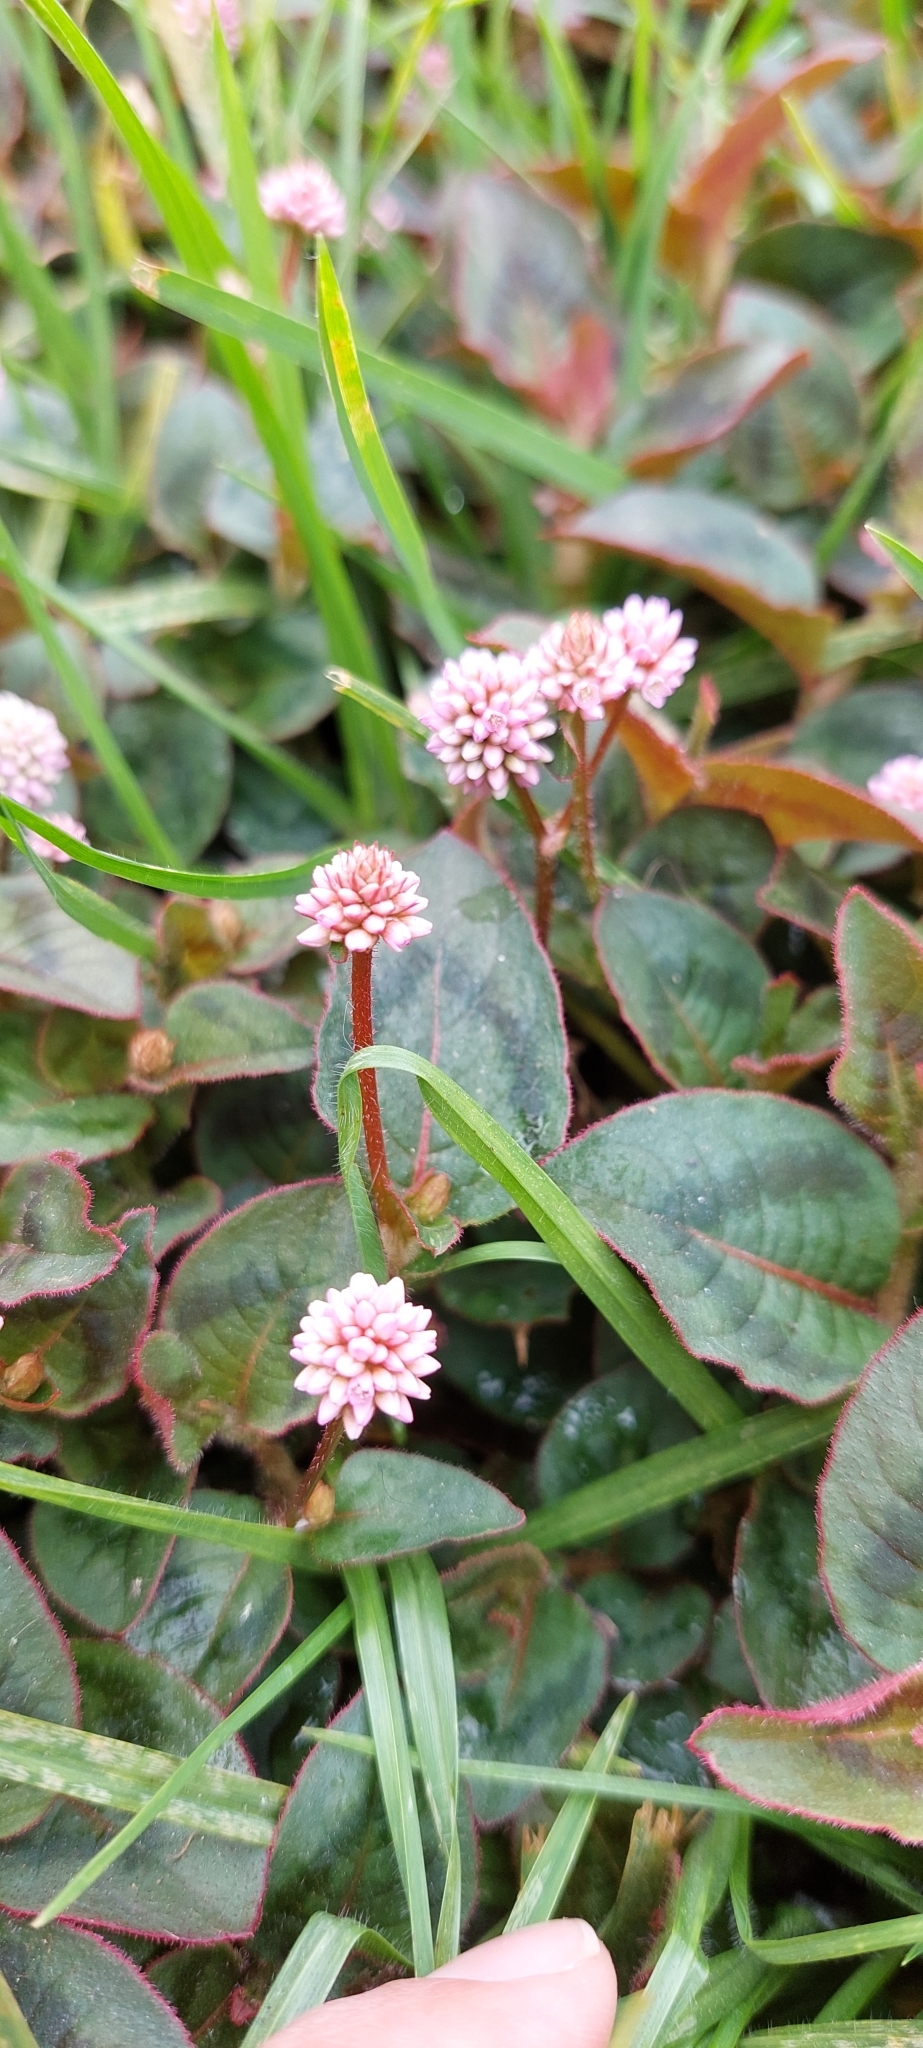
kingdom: Plantae
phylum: Tracheophyta
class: Magnoliopsida
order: Caryophyllales
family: Polygonaceae
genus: Persicaria
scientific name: Persicaria capitata
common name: Pinkhead smartweed
